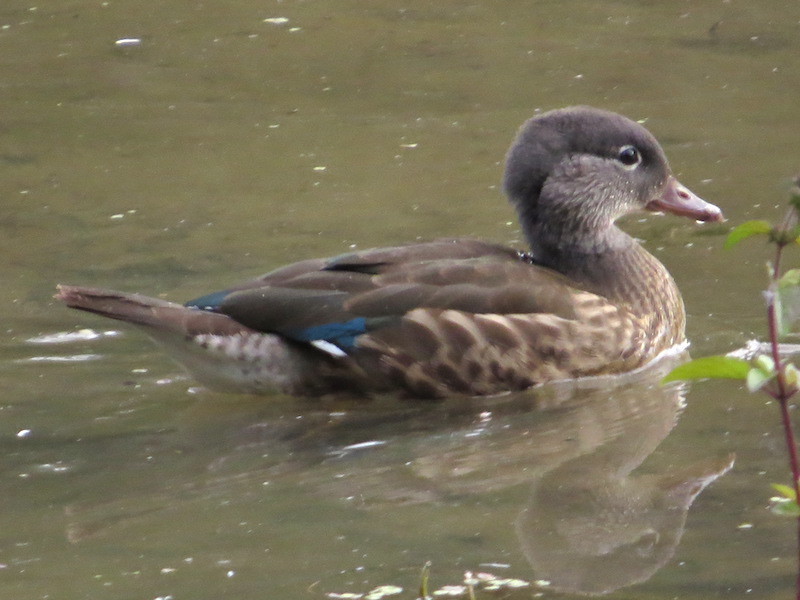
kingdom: Animalia
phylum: Chordata
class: Aves
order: Anseriformes
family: Anatidae
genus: Aix
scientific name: Aix galericulata
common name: Mandarin duck
